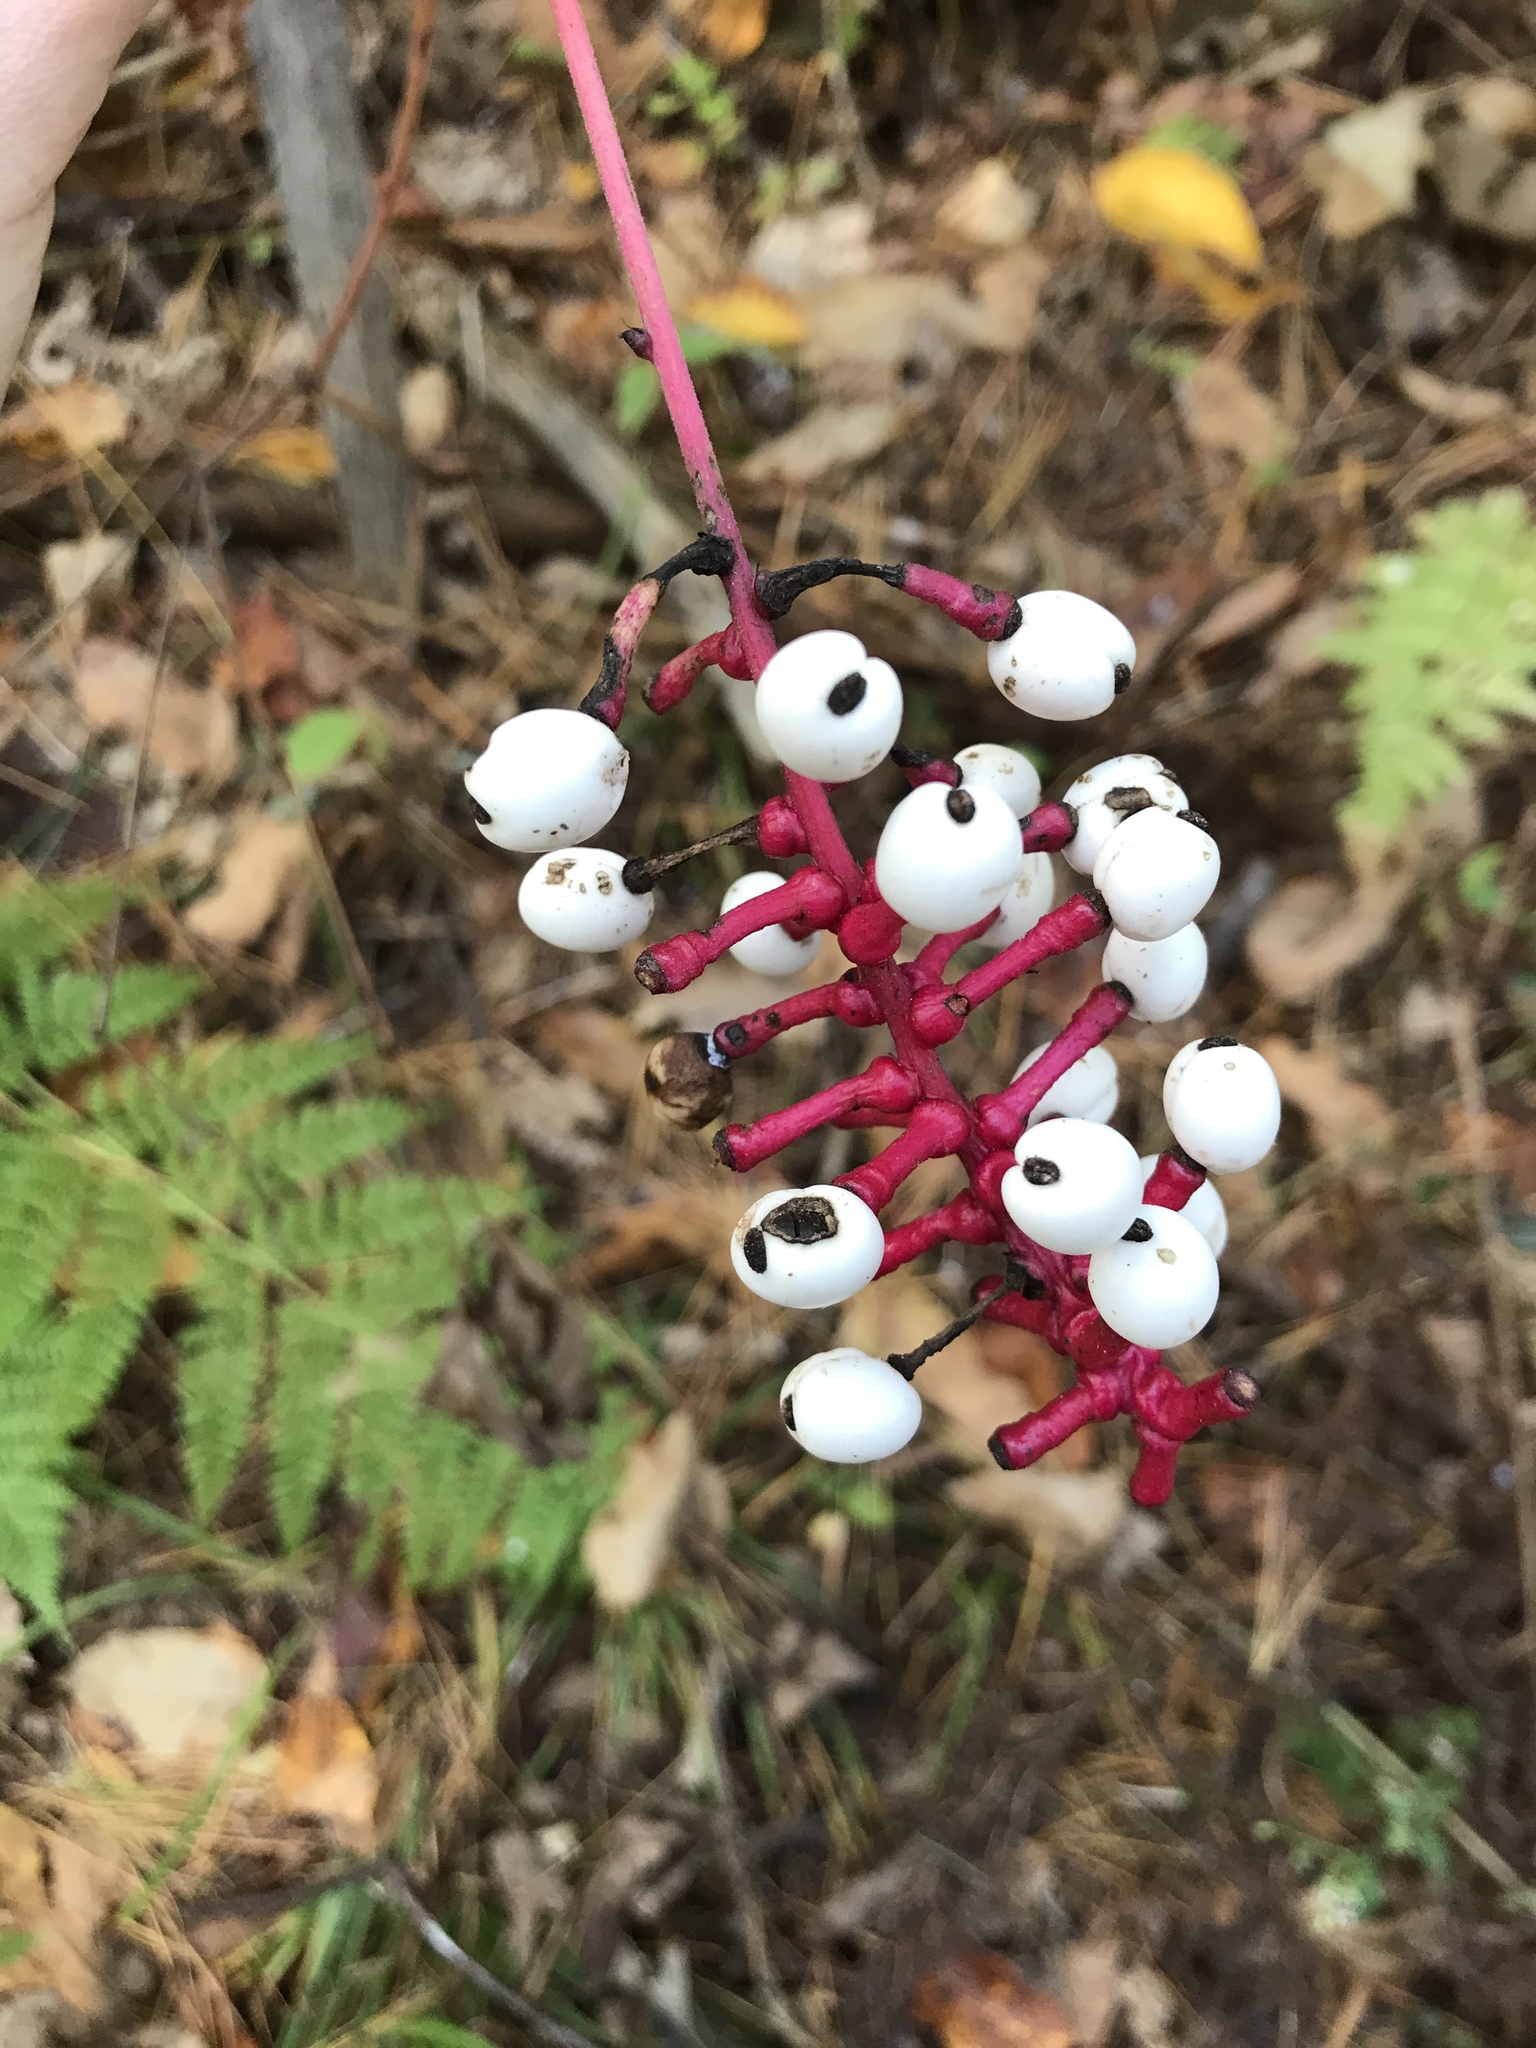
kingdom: Plantae
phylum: Tracheophyta
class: Magnoliopsida
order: Ranunculales
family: Ranunculaceae
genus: Actaea
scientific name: Actaea pachypoda
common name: Doll's-eyes
